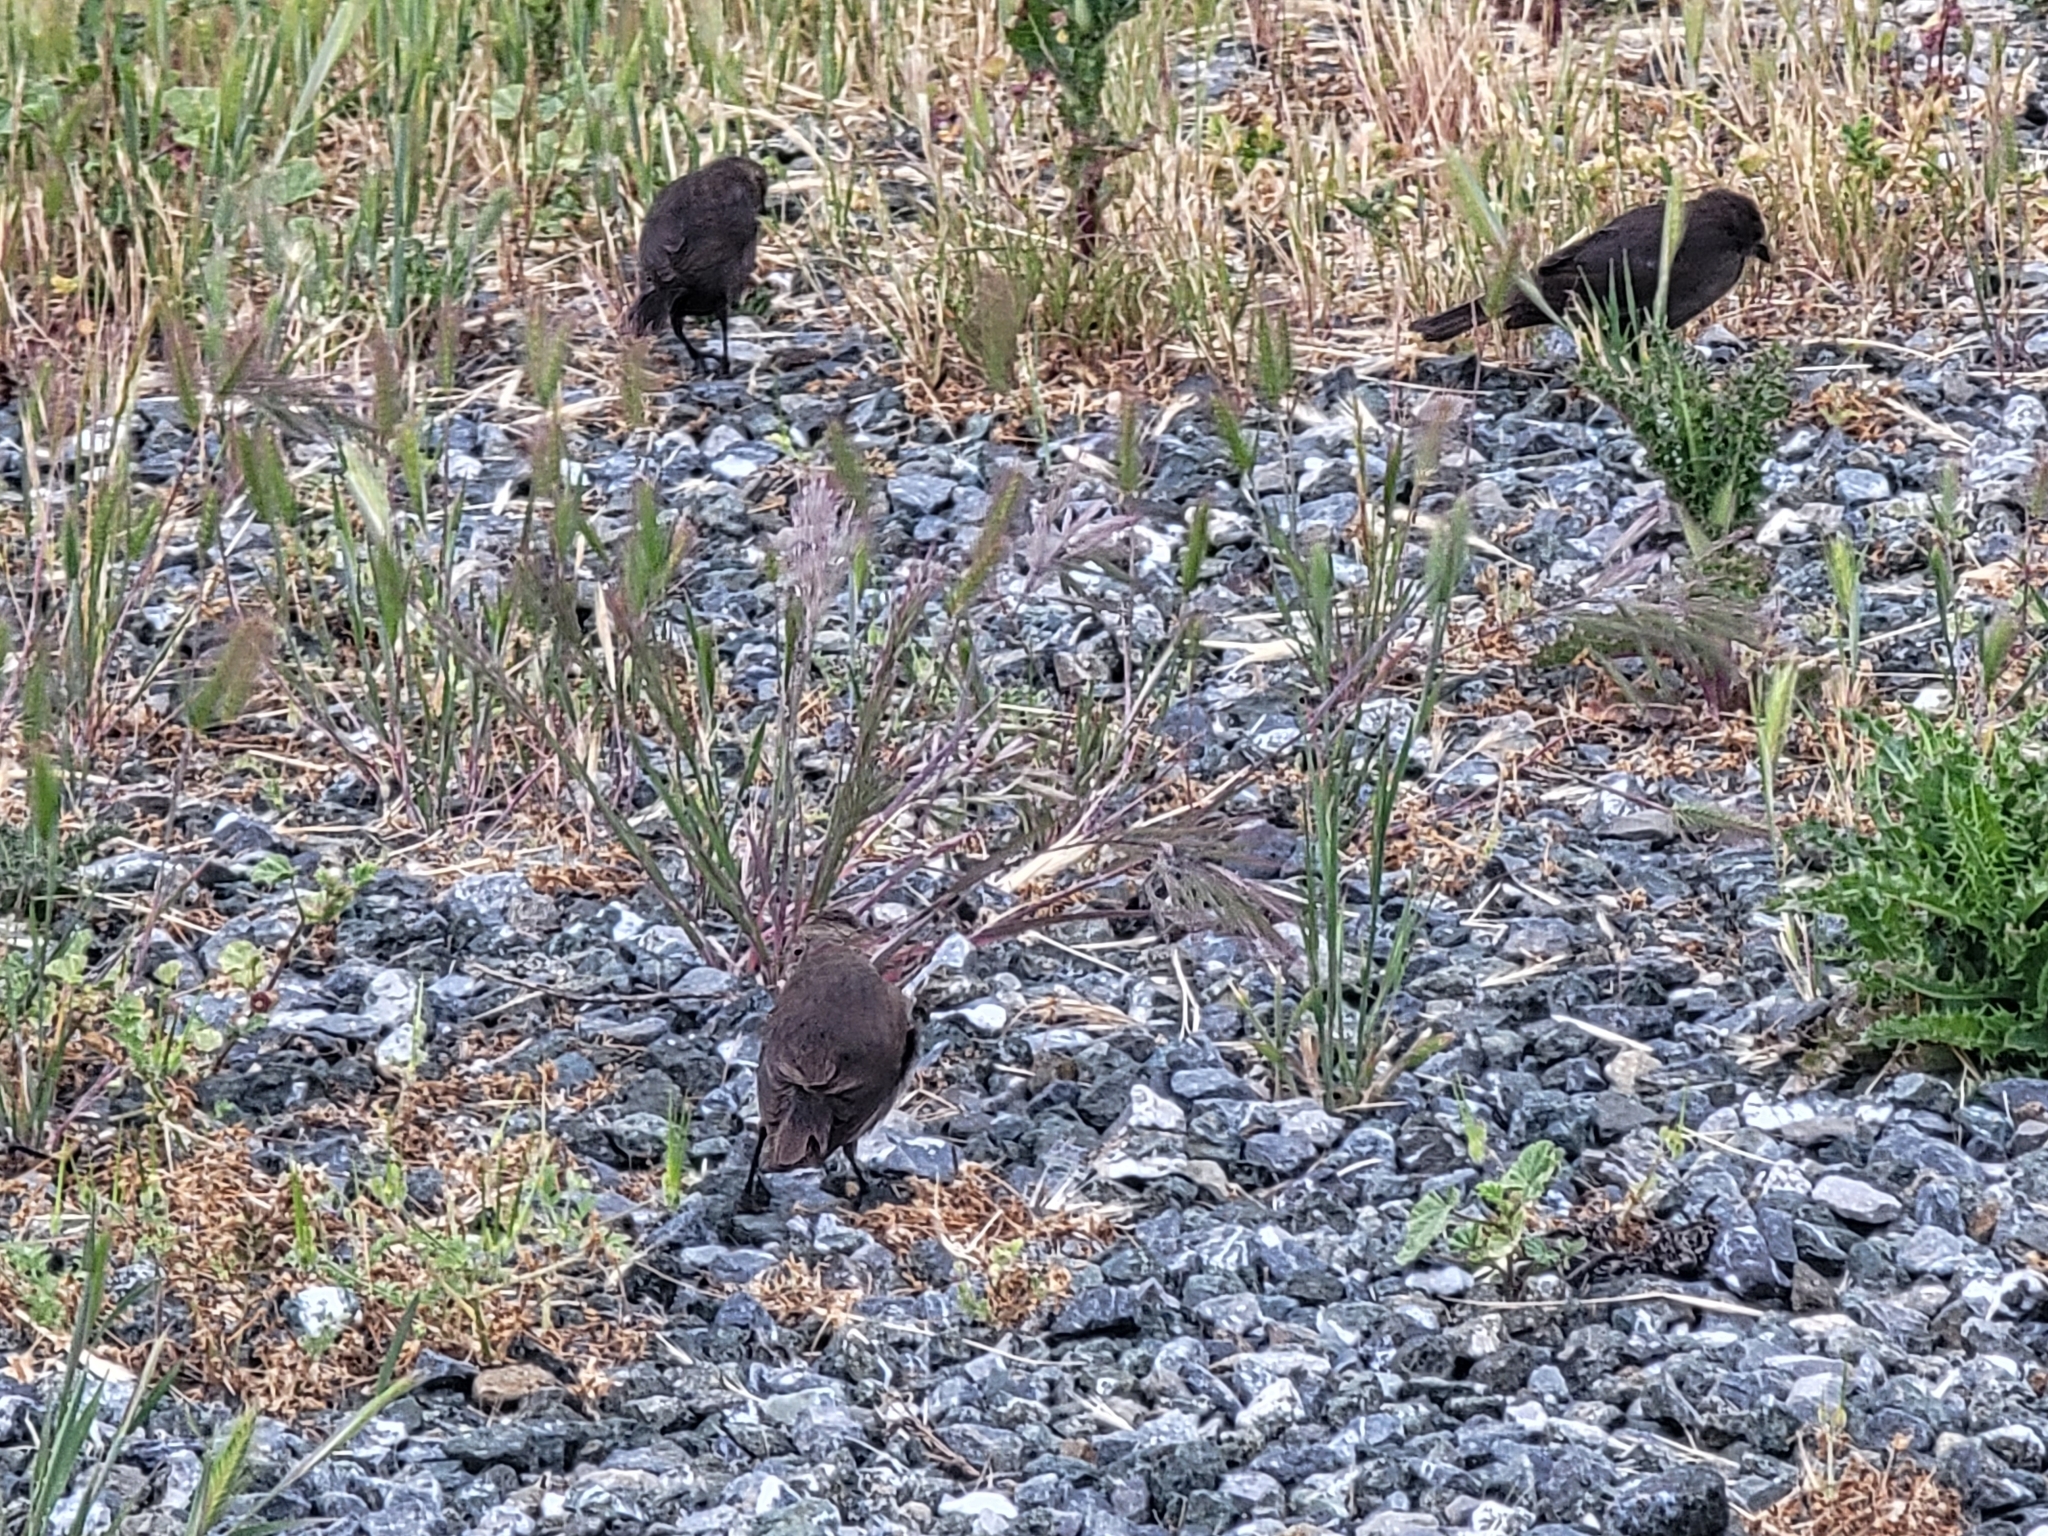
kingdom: Animalia
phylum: Chordata
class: Aves
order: Passeriformes
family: Icteridae
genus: Molothrus
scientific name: Molothrus ater
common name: Brown-headed cowbird
